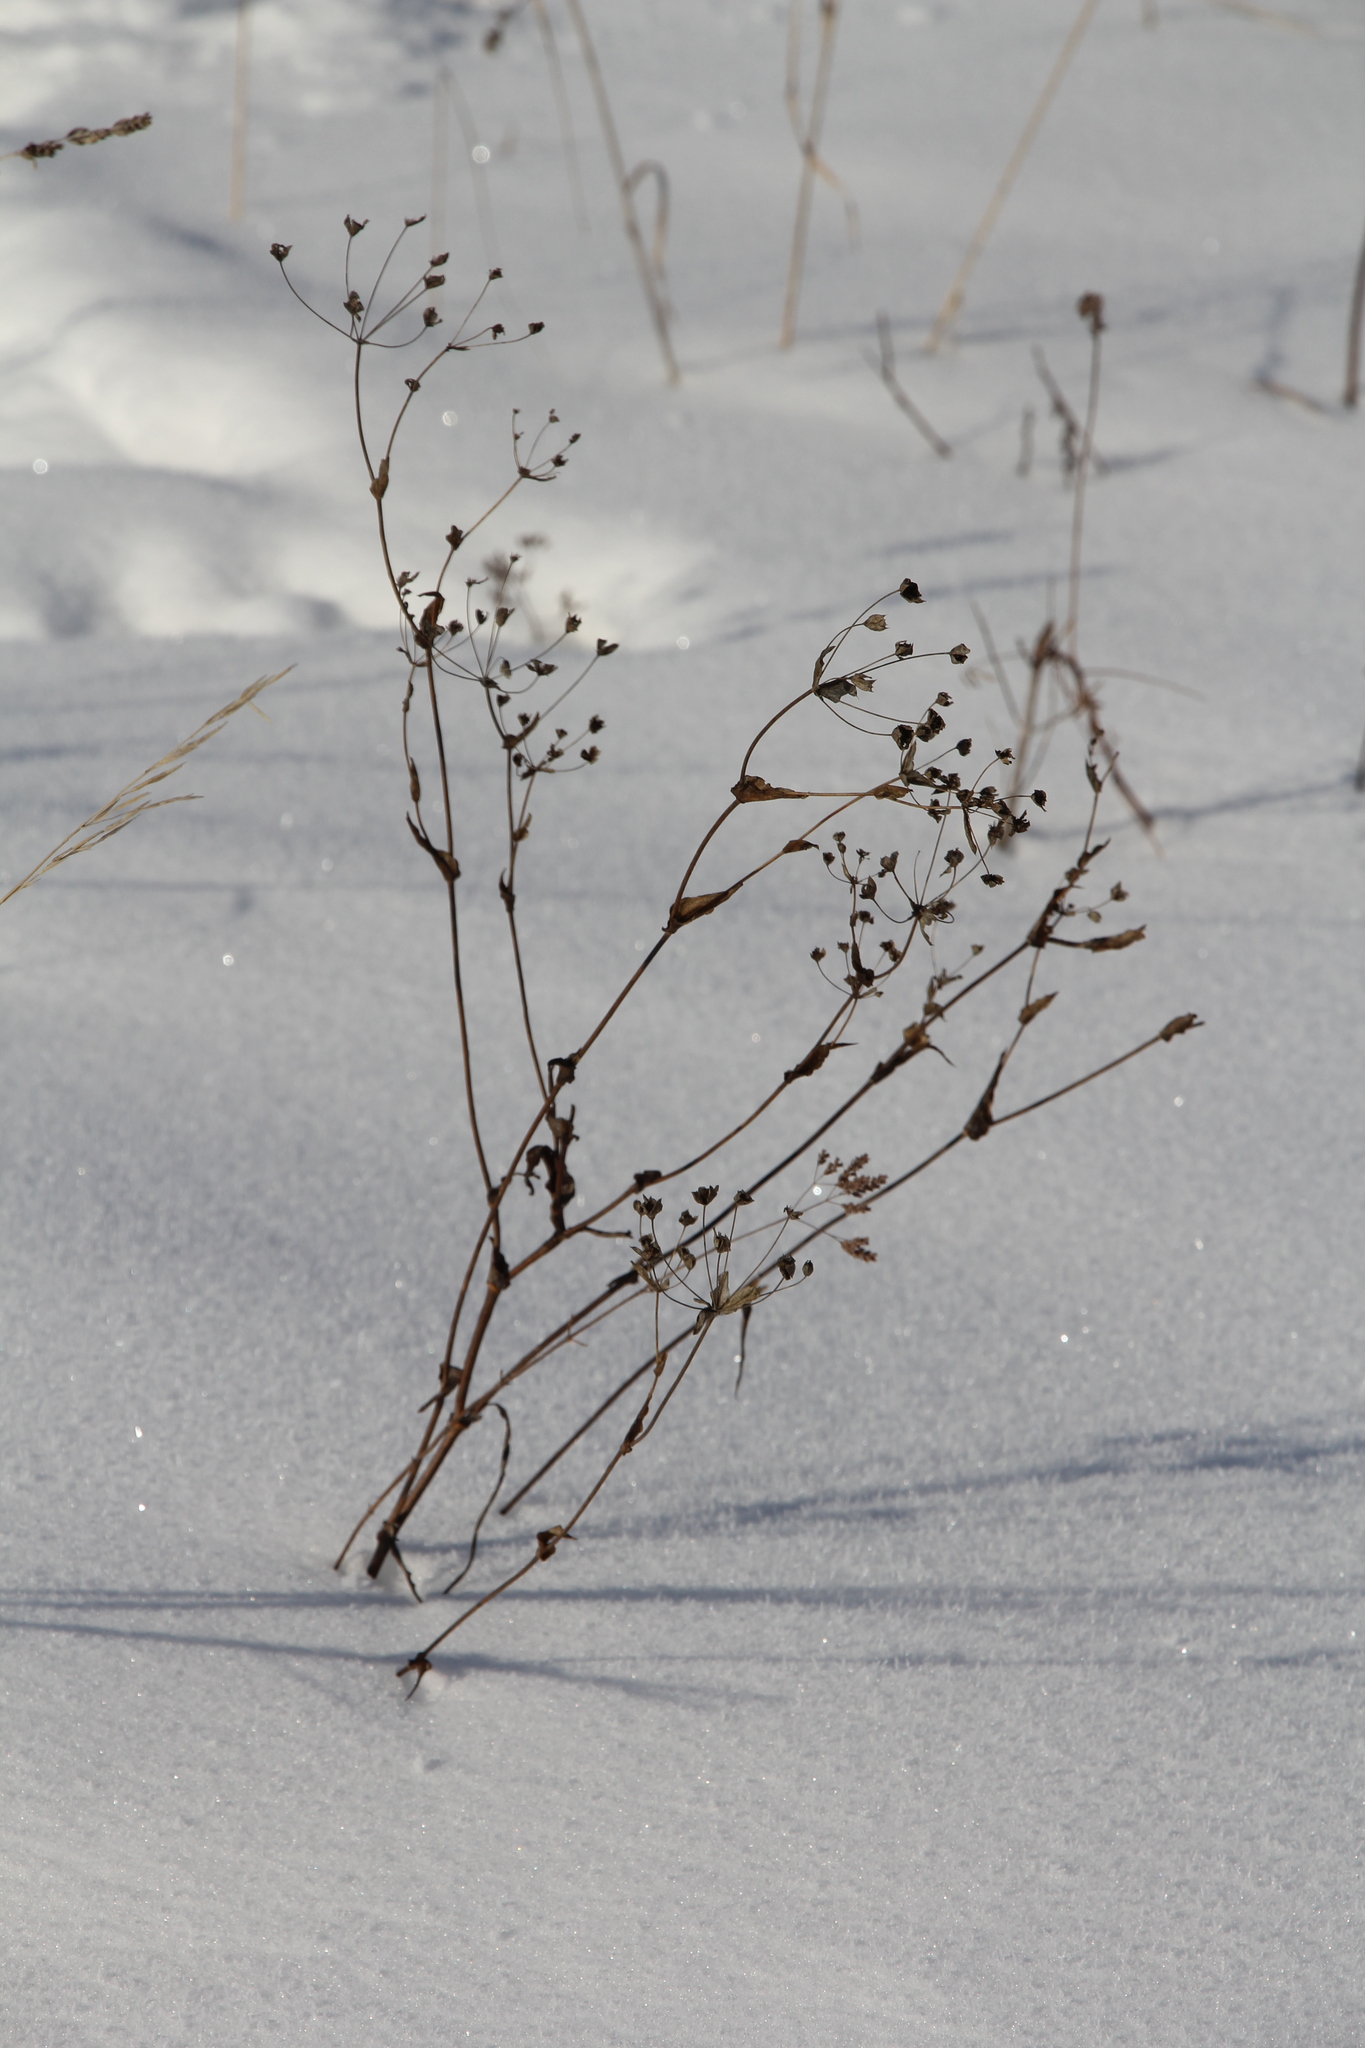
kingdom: Plantae
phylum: Tracheophyta
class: Magnoliopsida
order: Apiales
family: Apiaceae
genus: Bupleurum
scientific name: Bupleurum multinerve
